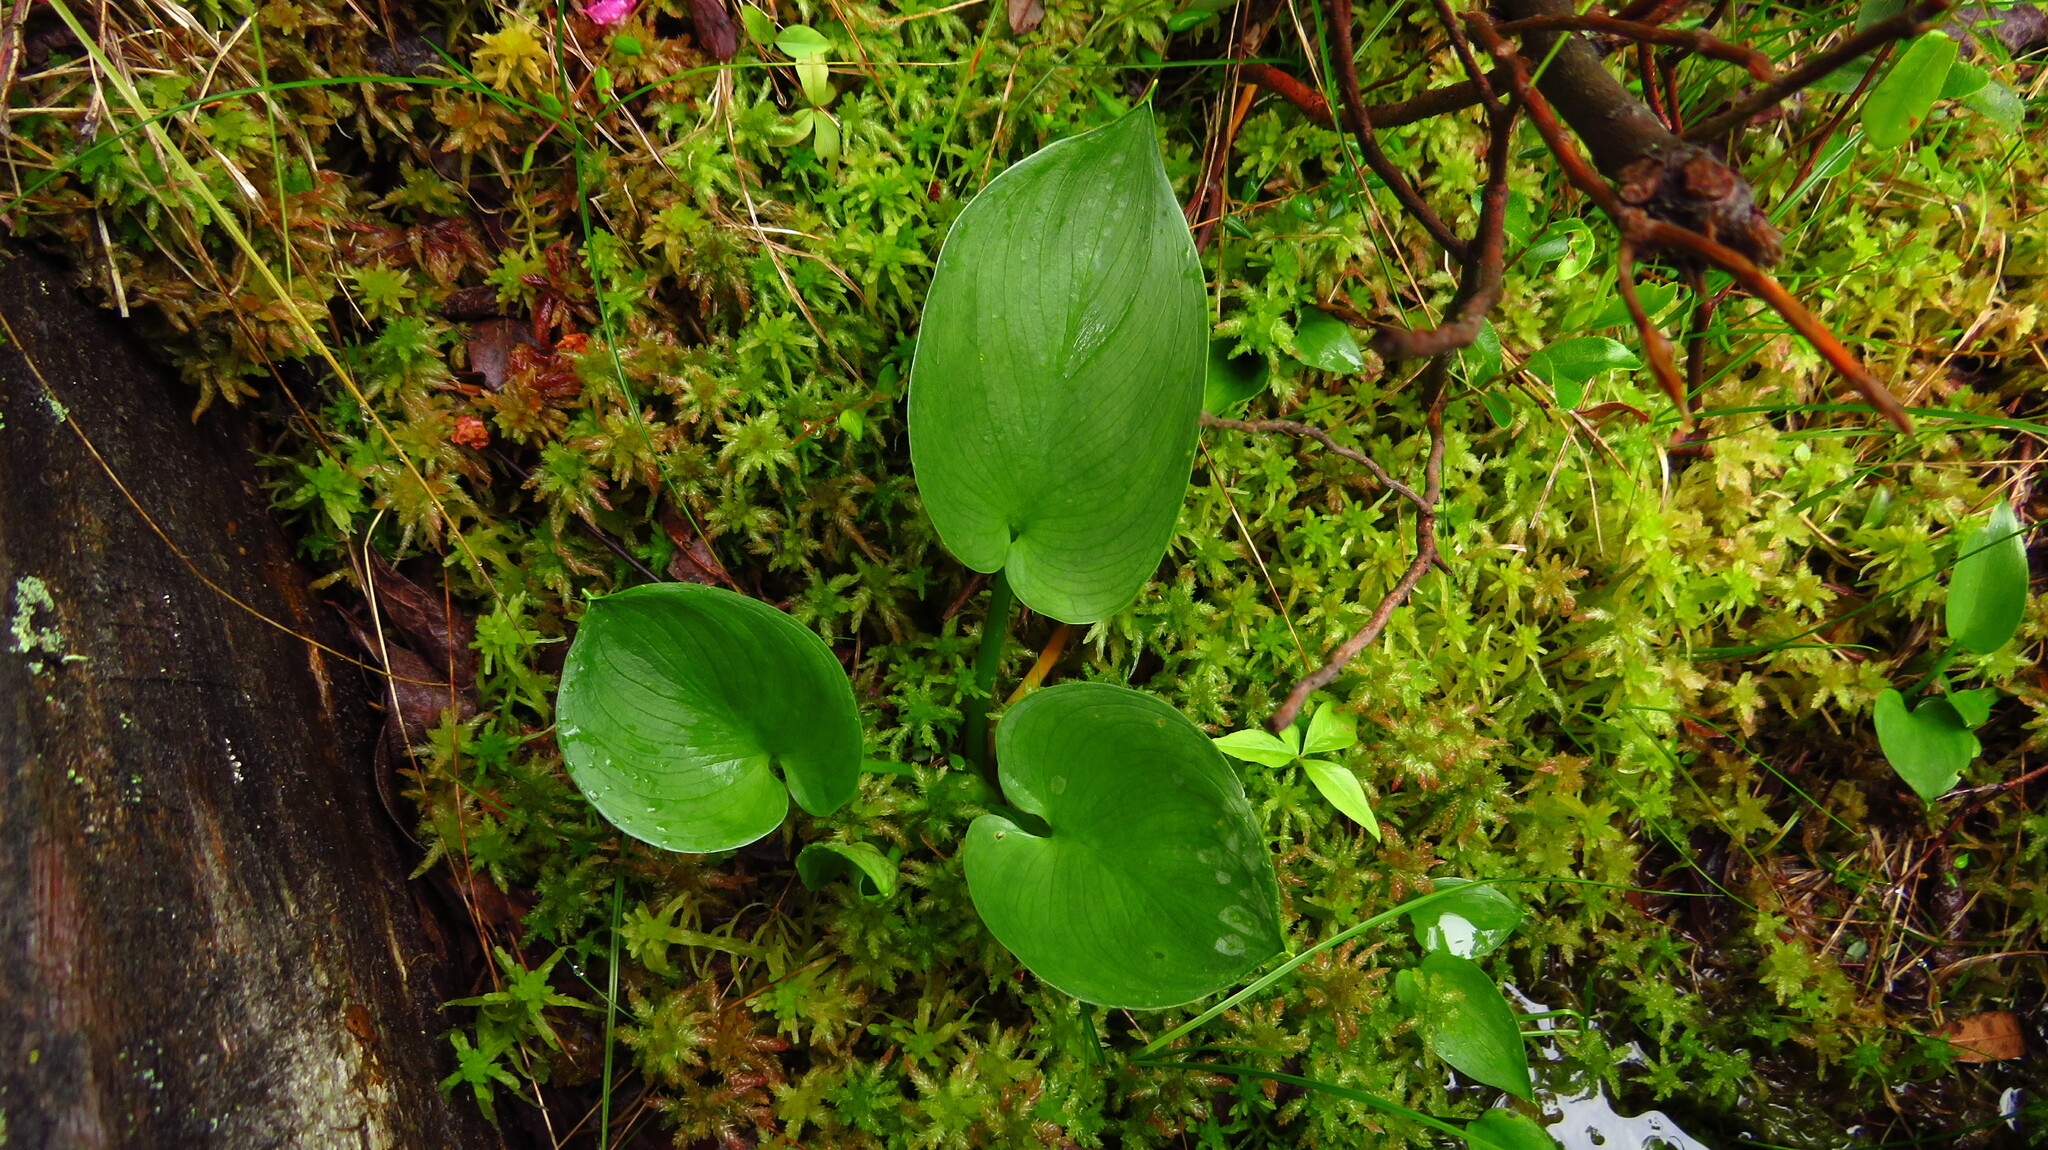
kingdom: Plantae
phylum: Tracheophyta
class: Liliopsida
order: Alismatales
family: Araceae
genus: Calla
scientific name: Calla palustris
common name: Bog arum
